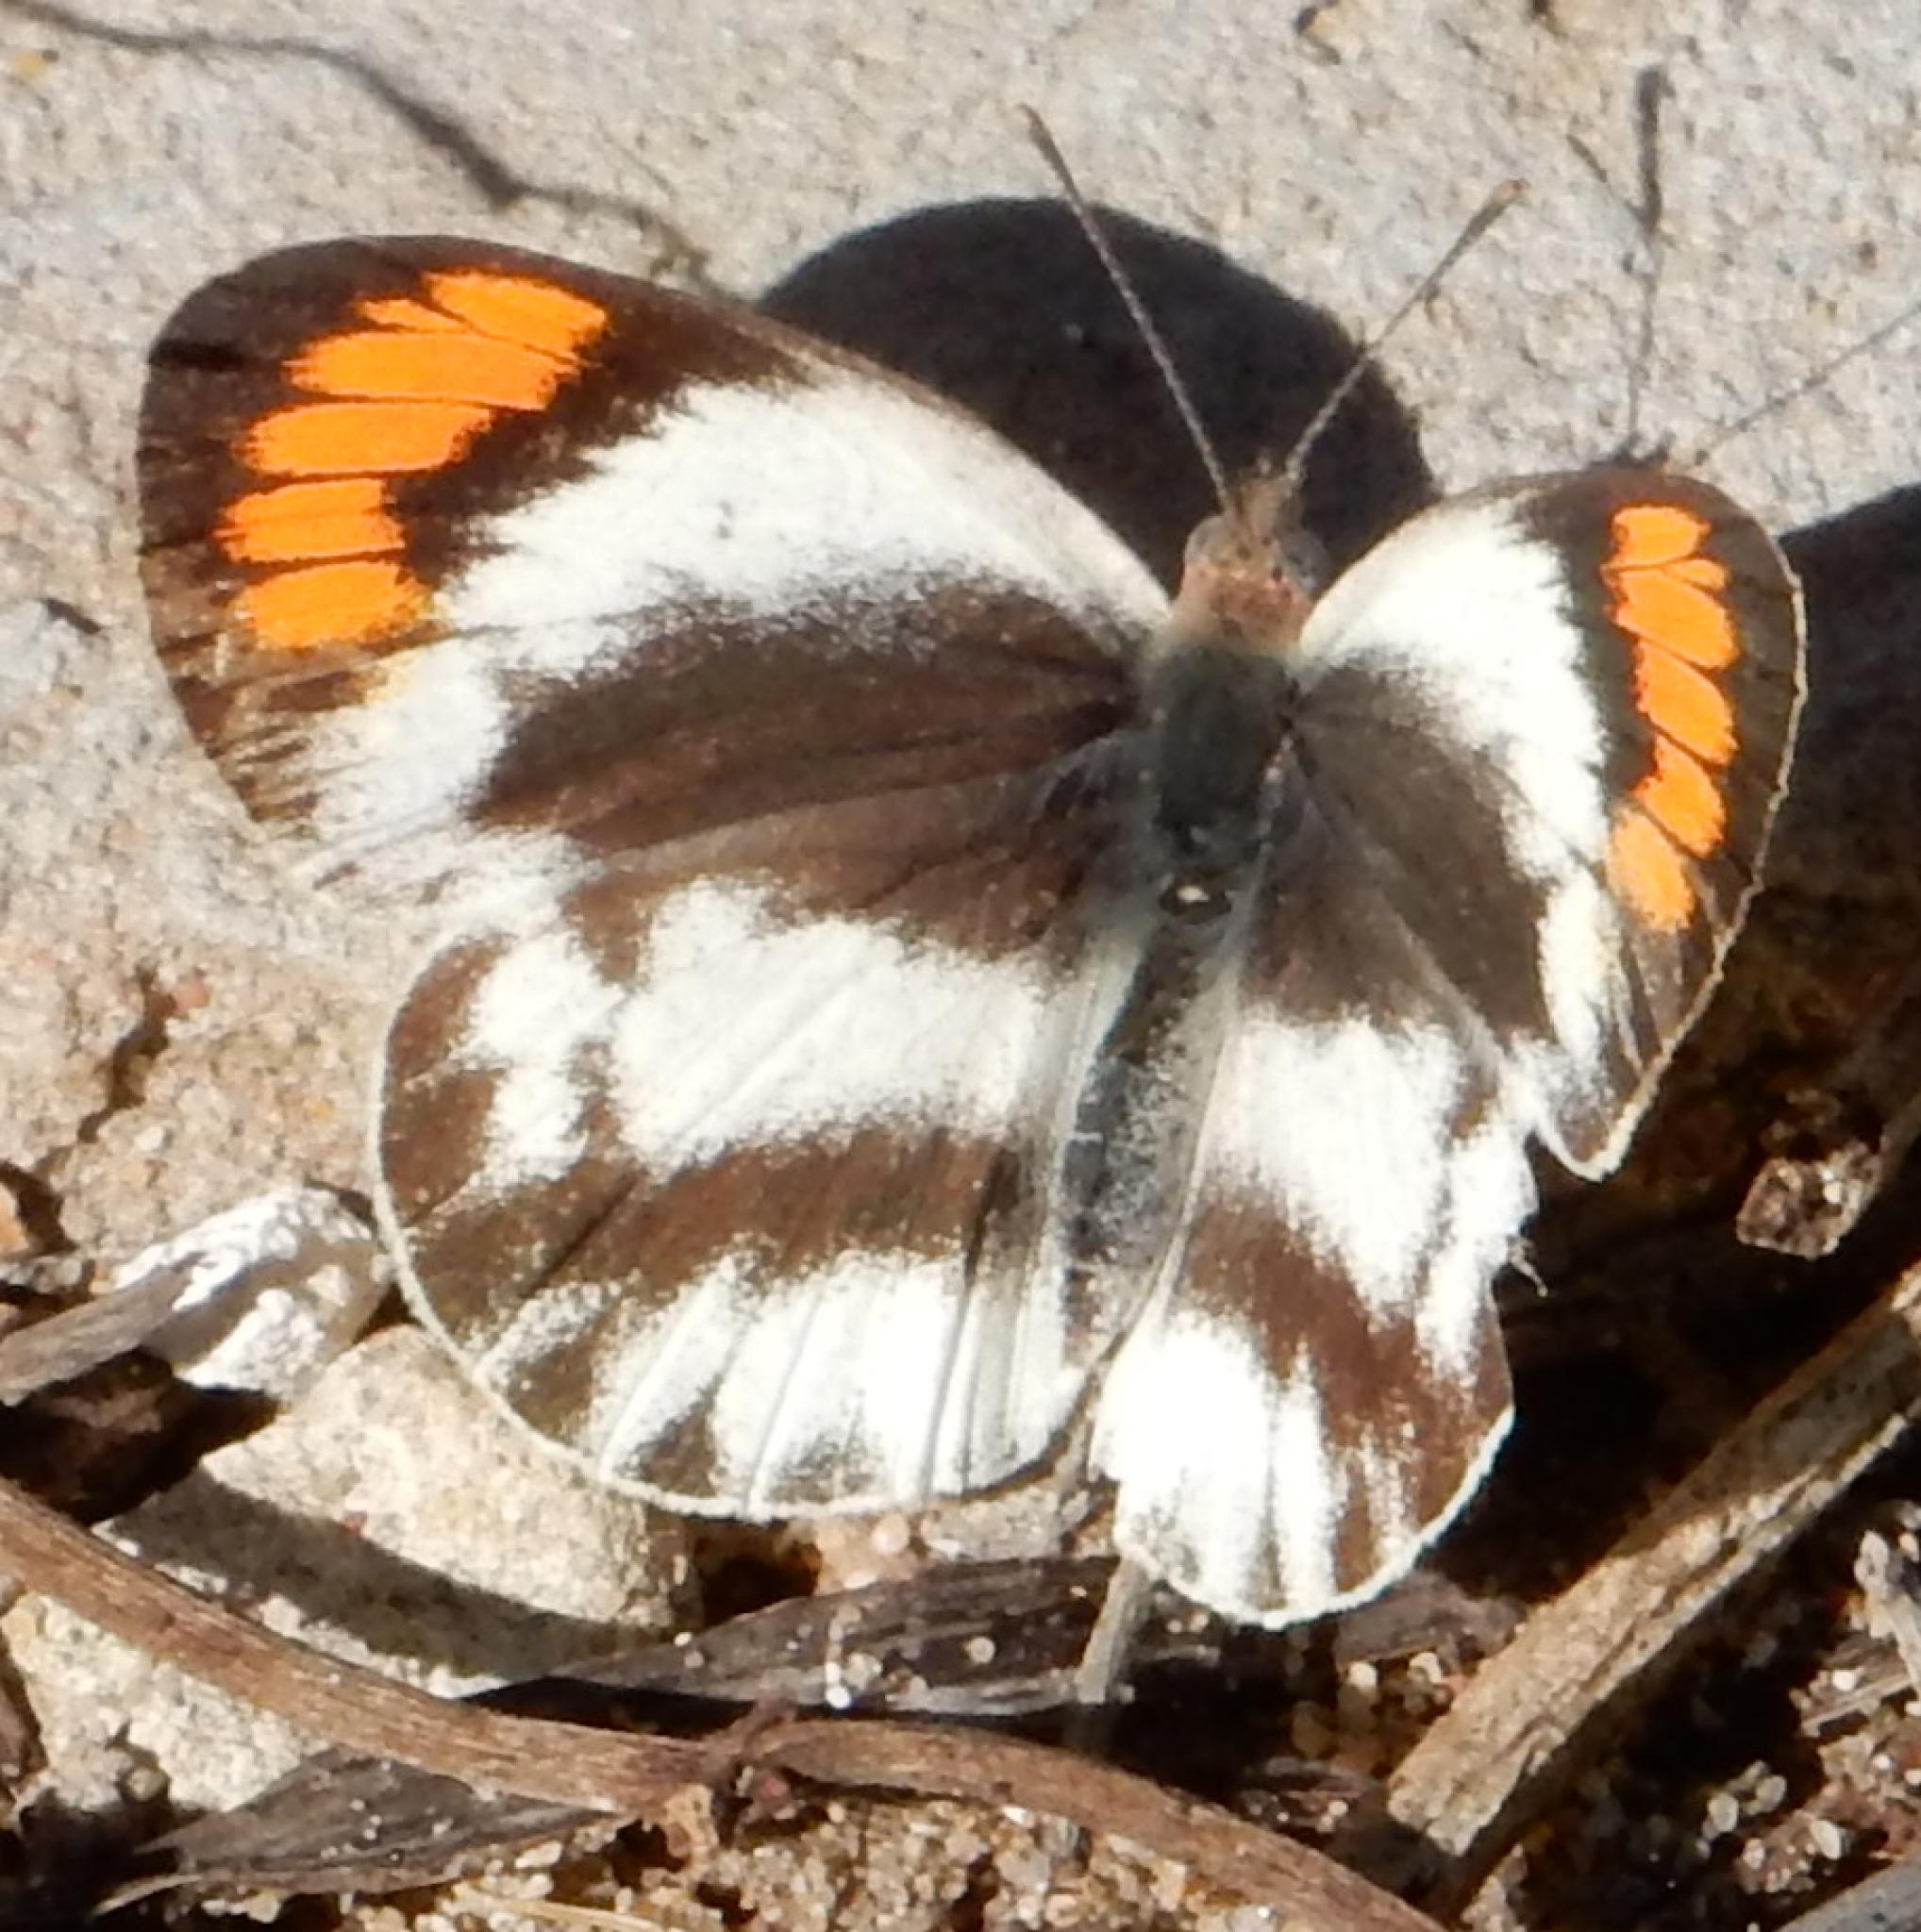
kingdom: Animalia
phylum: Arthropoda
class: Insecta
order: Lepidoptera
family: Pieridae
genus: Colotis
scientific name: Colotis euippe
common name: Round-winged orange tip
